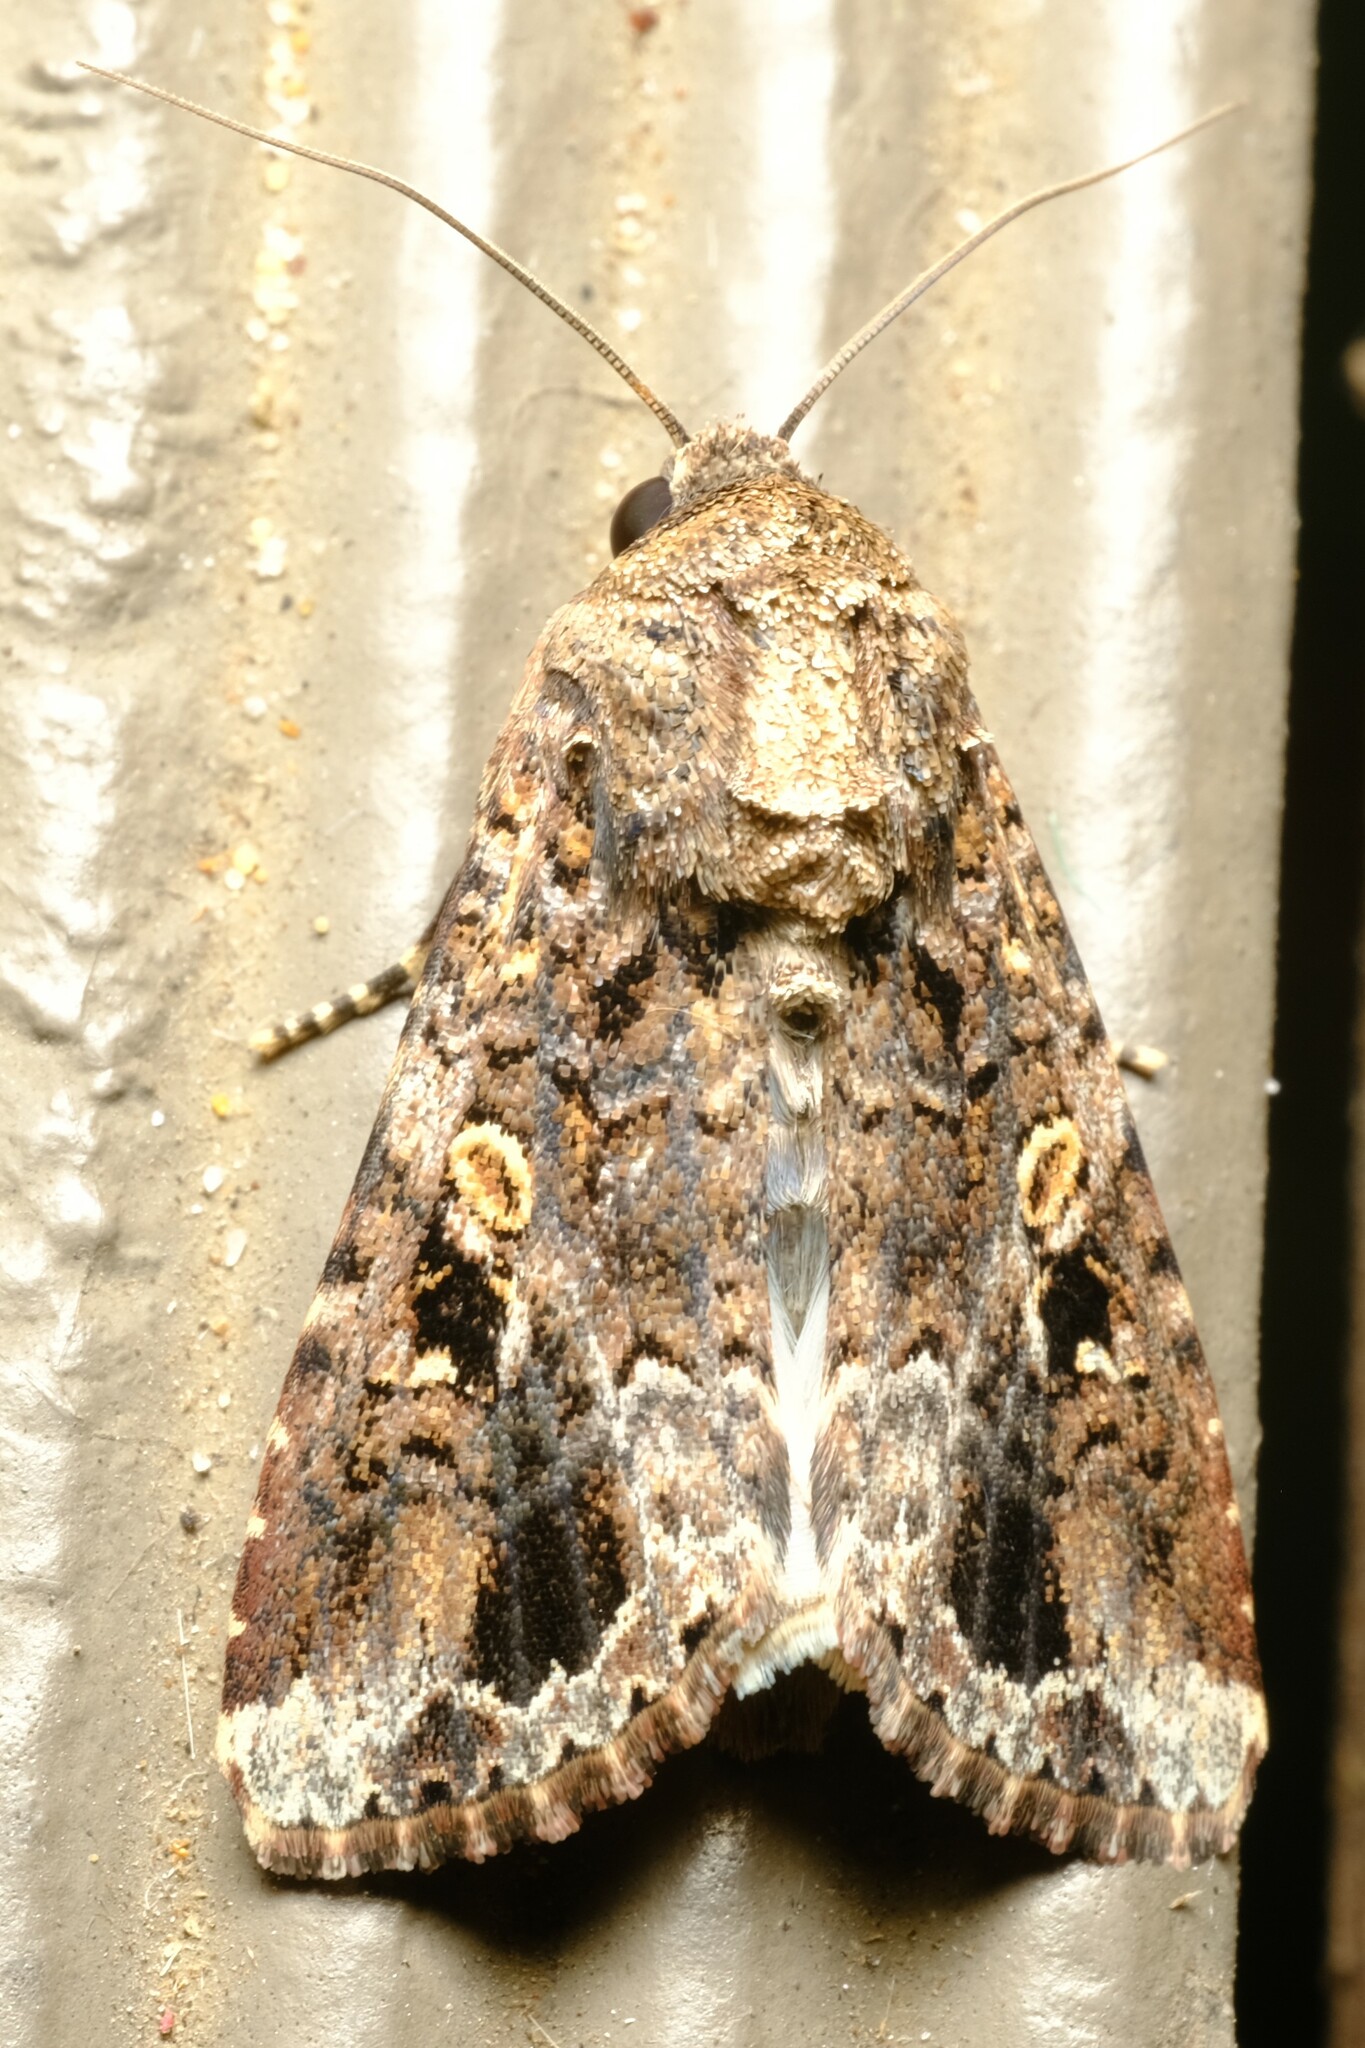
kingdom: Animalia
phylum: Arthropoda
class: Insecta
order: Lepidoptera
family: Noctuidae
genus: Spodoptera
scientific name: Spodoptera mauritia
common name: Lawn armyworm
